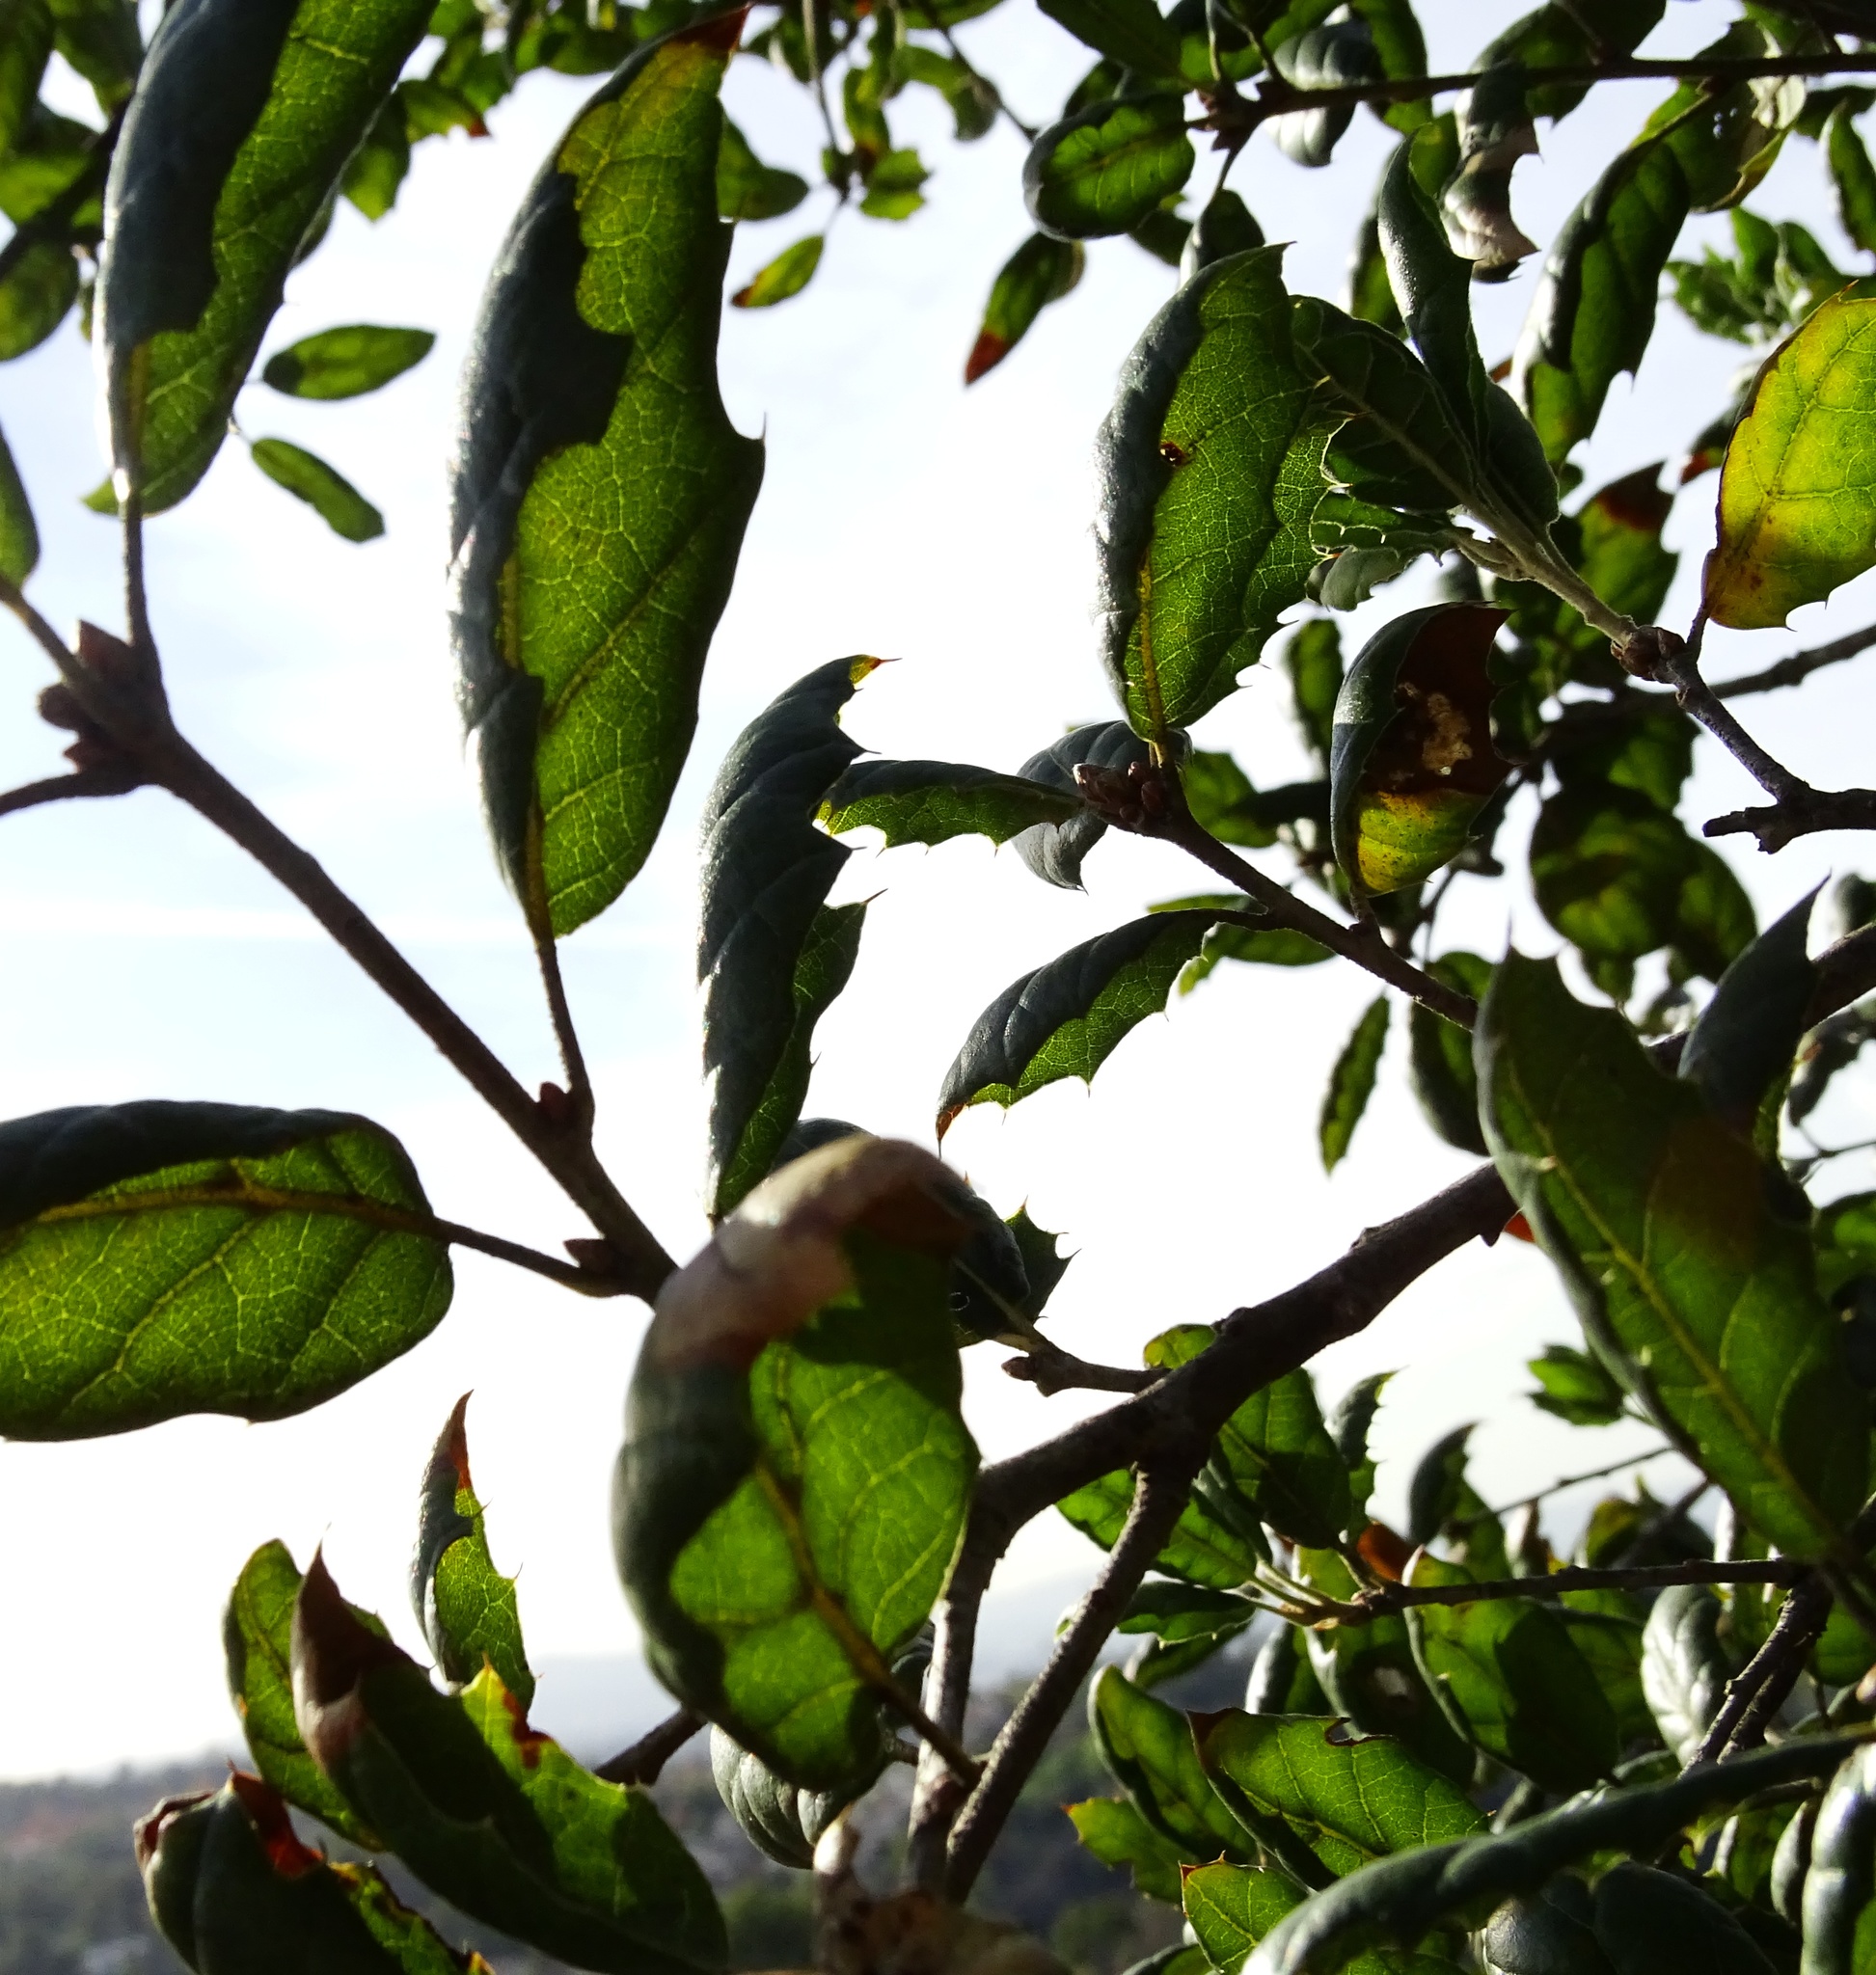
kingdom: Plantae
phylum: Tracheophyta
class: Magnoliopsida
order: Fagales
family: Fagaceae
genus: Quercus
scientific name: Quercus agrifolia
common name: California live oak
